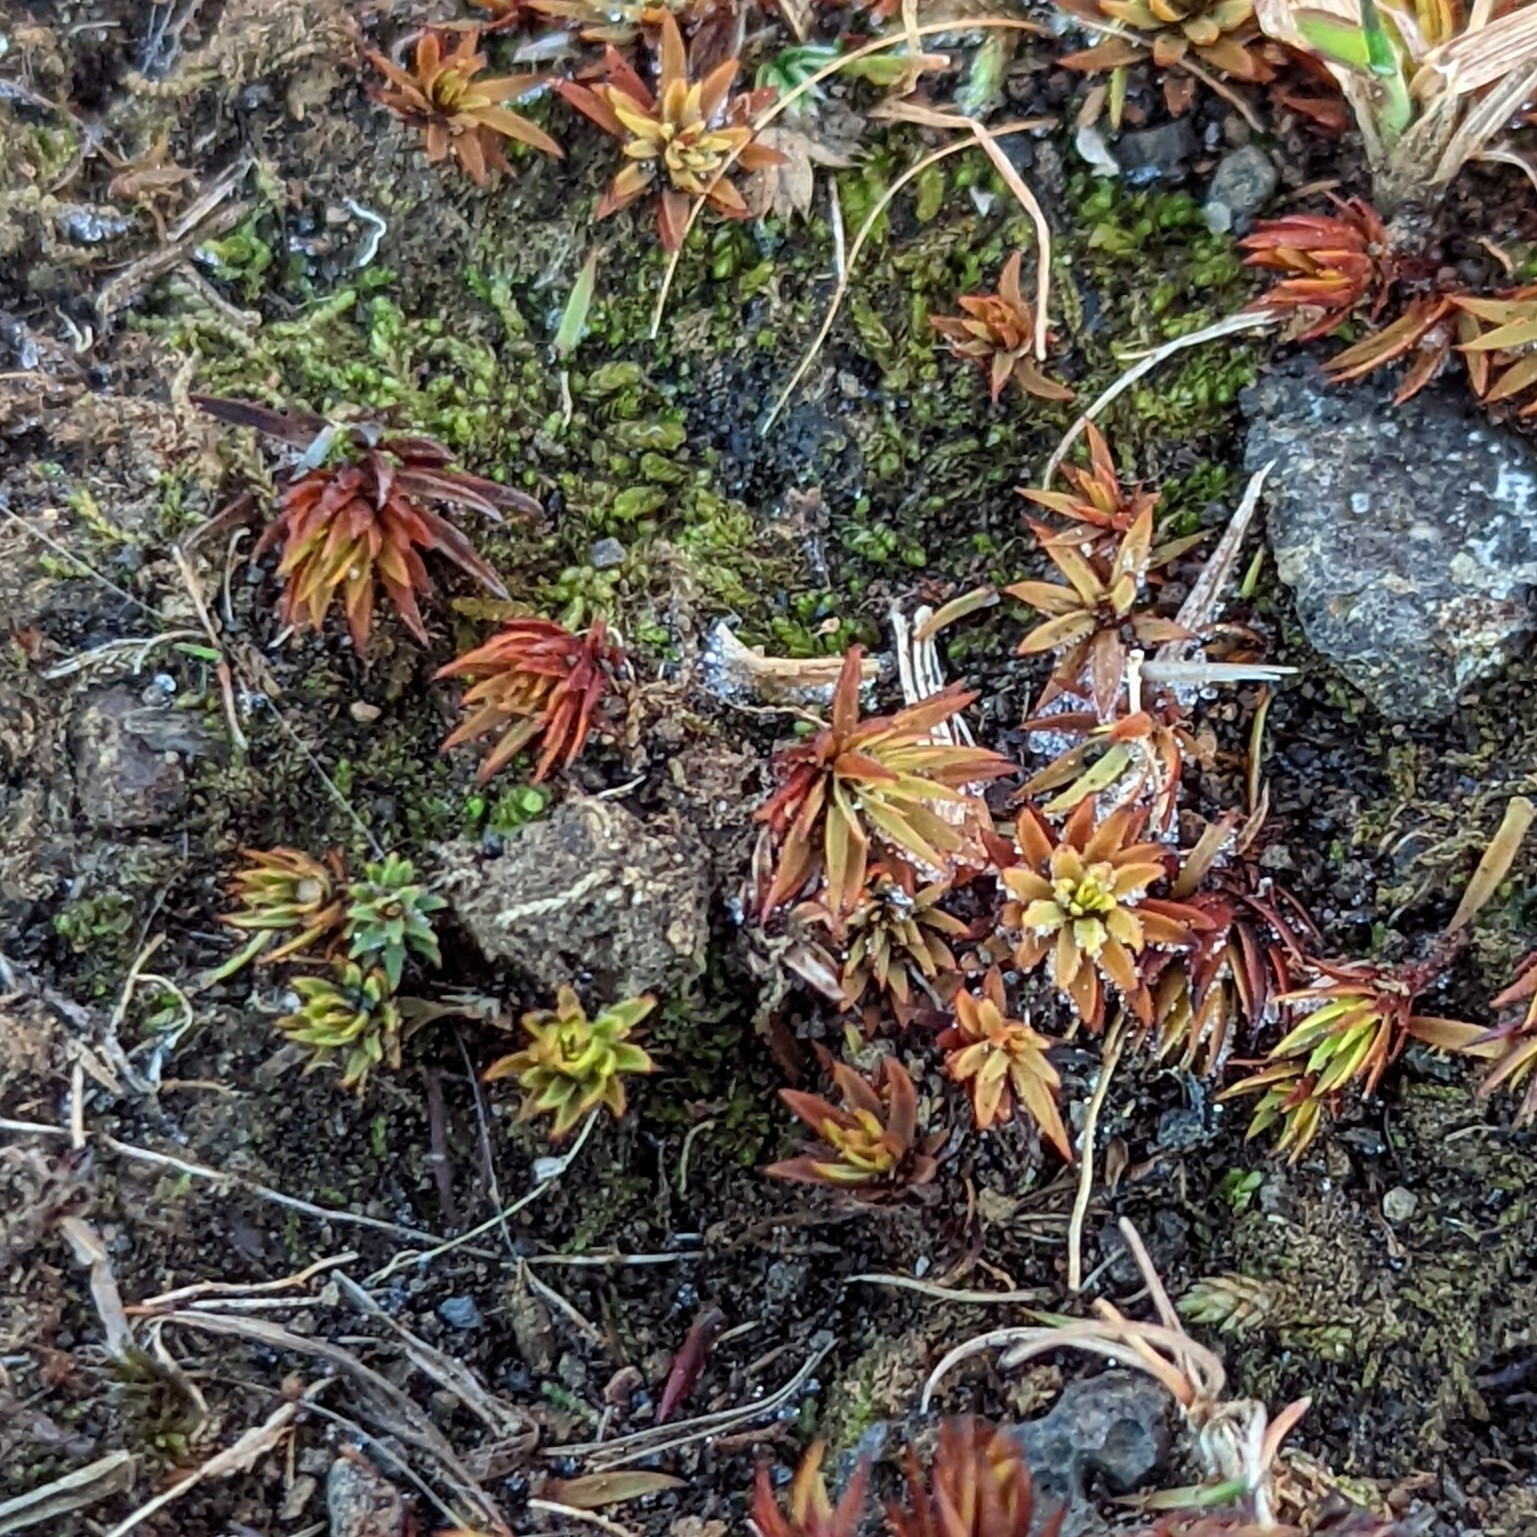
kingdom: Plantae
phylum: Bryophyta
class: Polytrichopsida
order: Polytrichales
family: Polytrichaceae
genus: Pogonatum
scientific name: Pogonatum urnigerum
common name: Urn hair moss
